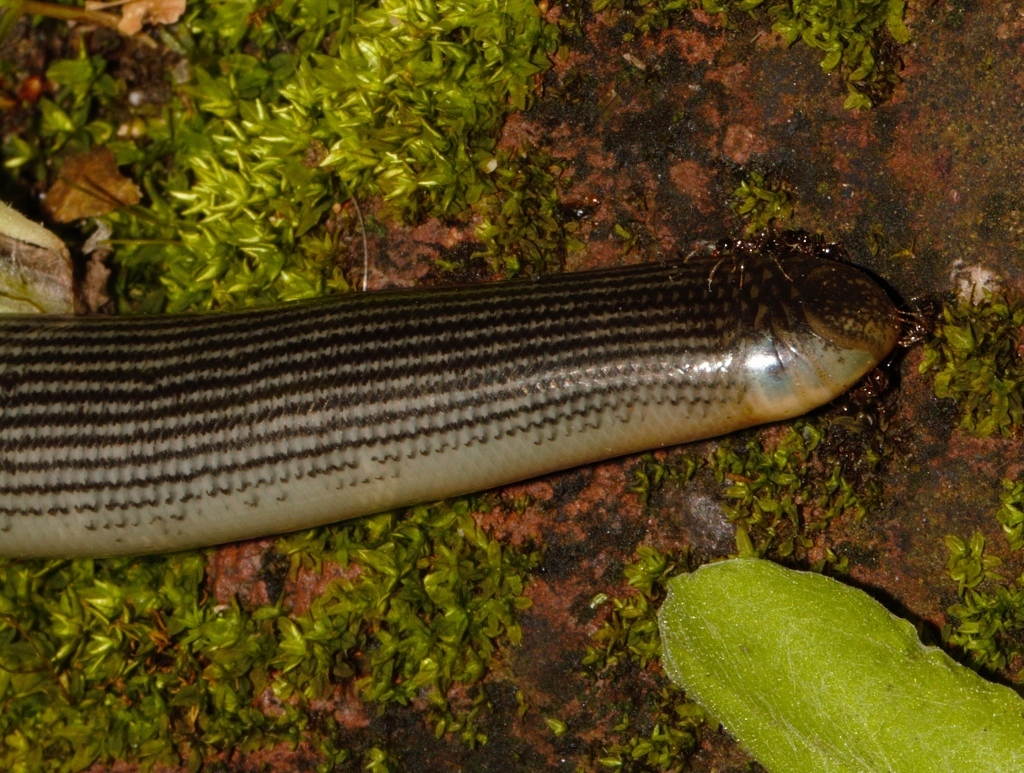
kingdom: Animalia
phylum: Chordata
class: Squamata
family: Typhlopidae
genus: Afrotyphlops
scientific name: Afrotyphlops mucruso
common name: Zambezi blind snake
